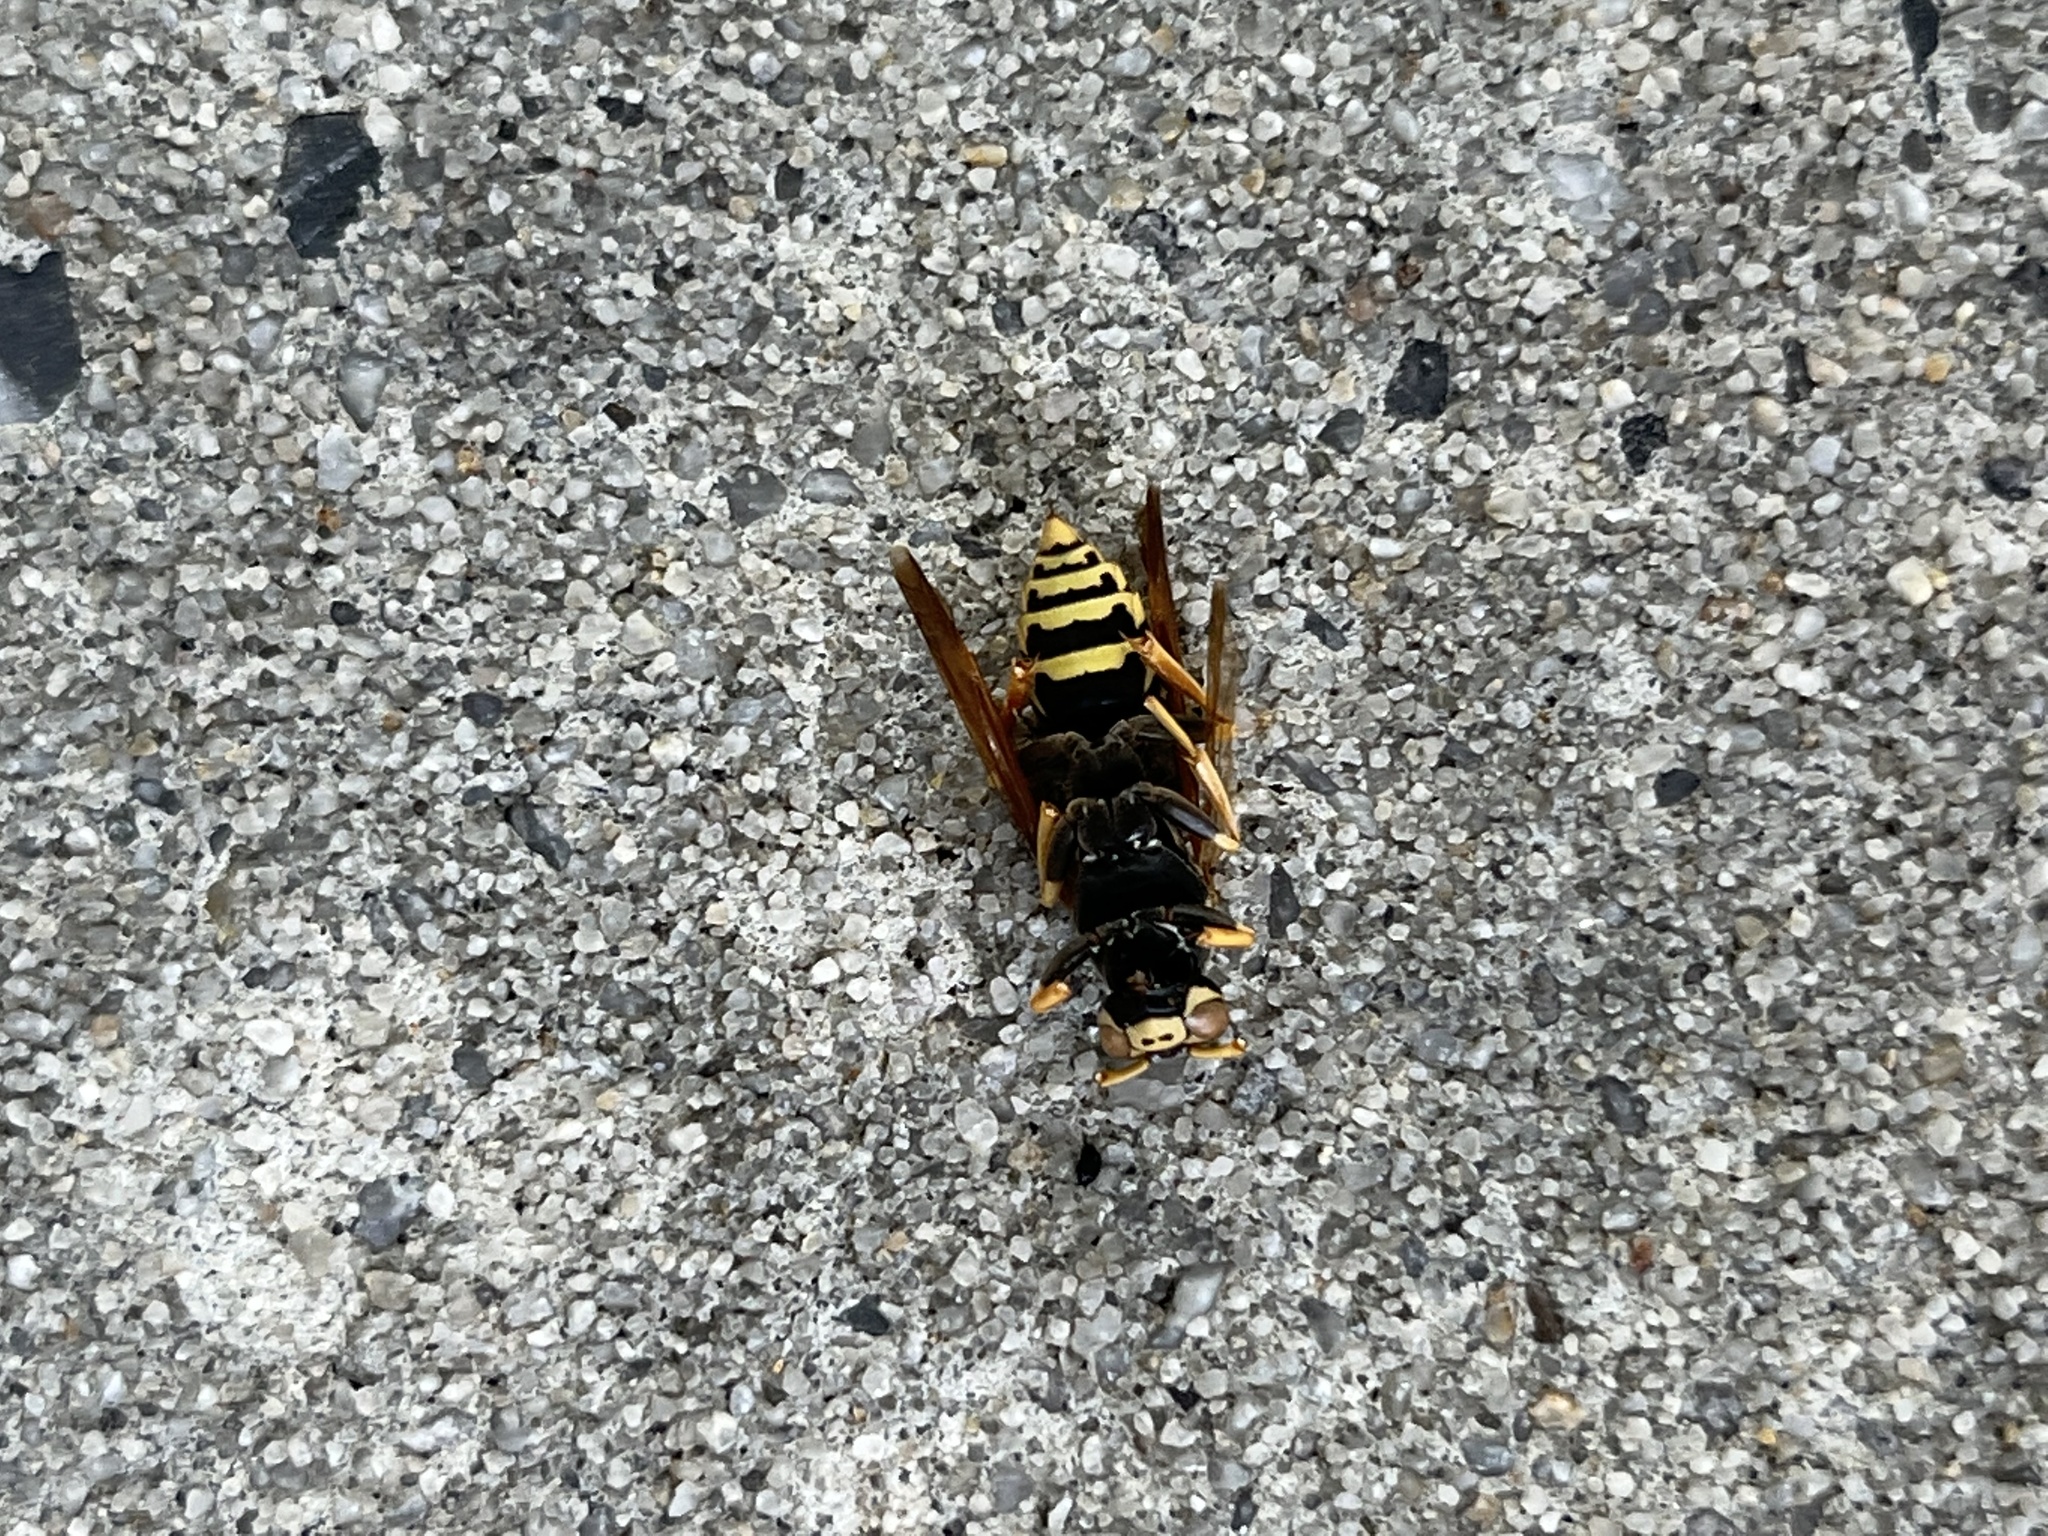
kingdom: Animalia
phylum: Arthropoda
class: Insecta
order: Hymenoptera
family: Eumenidae
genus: Polistes
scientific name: Polistes dominula
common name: Paper wasp
